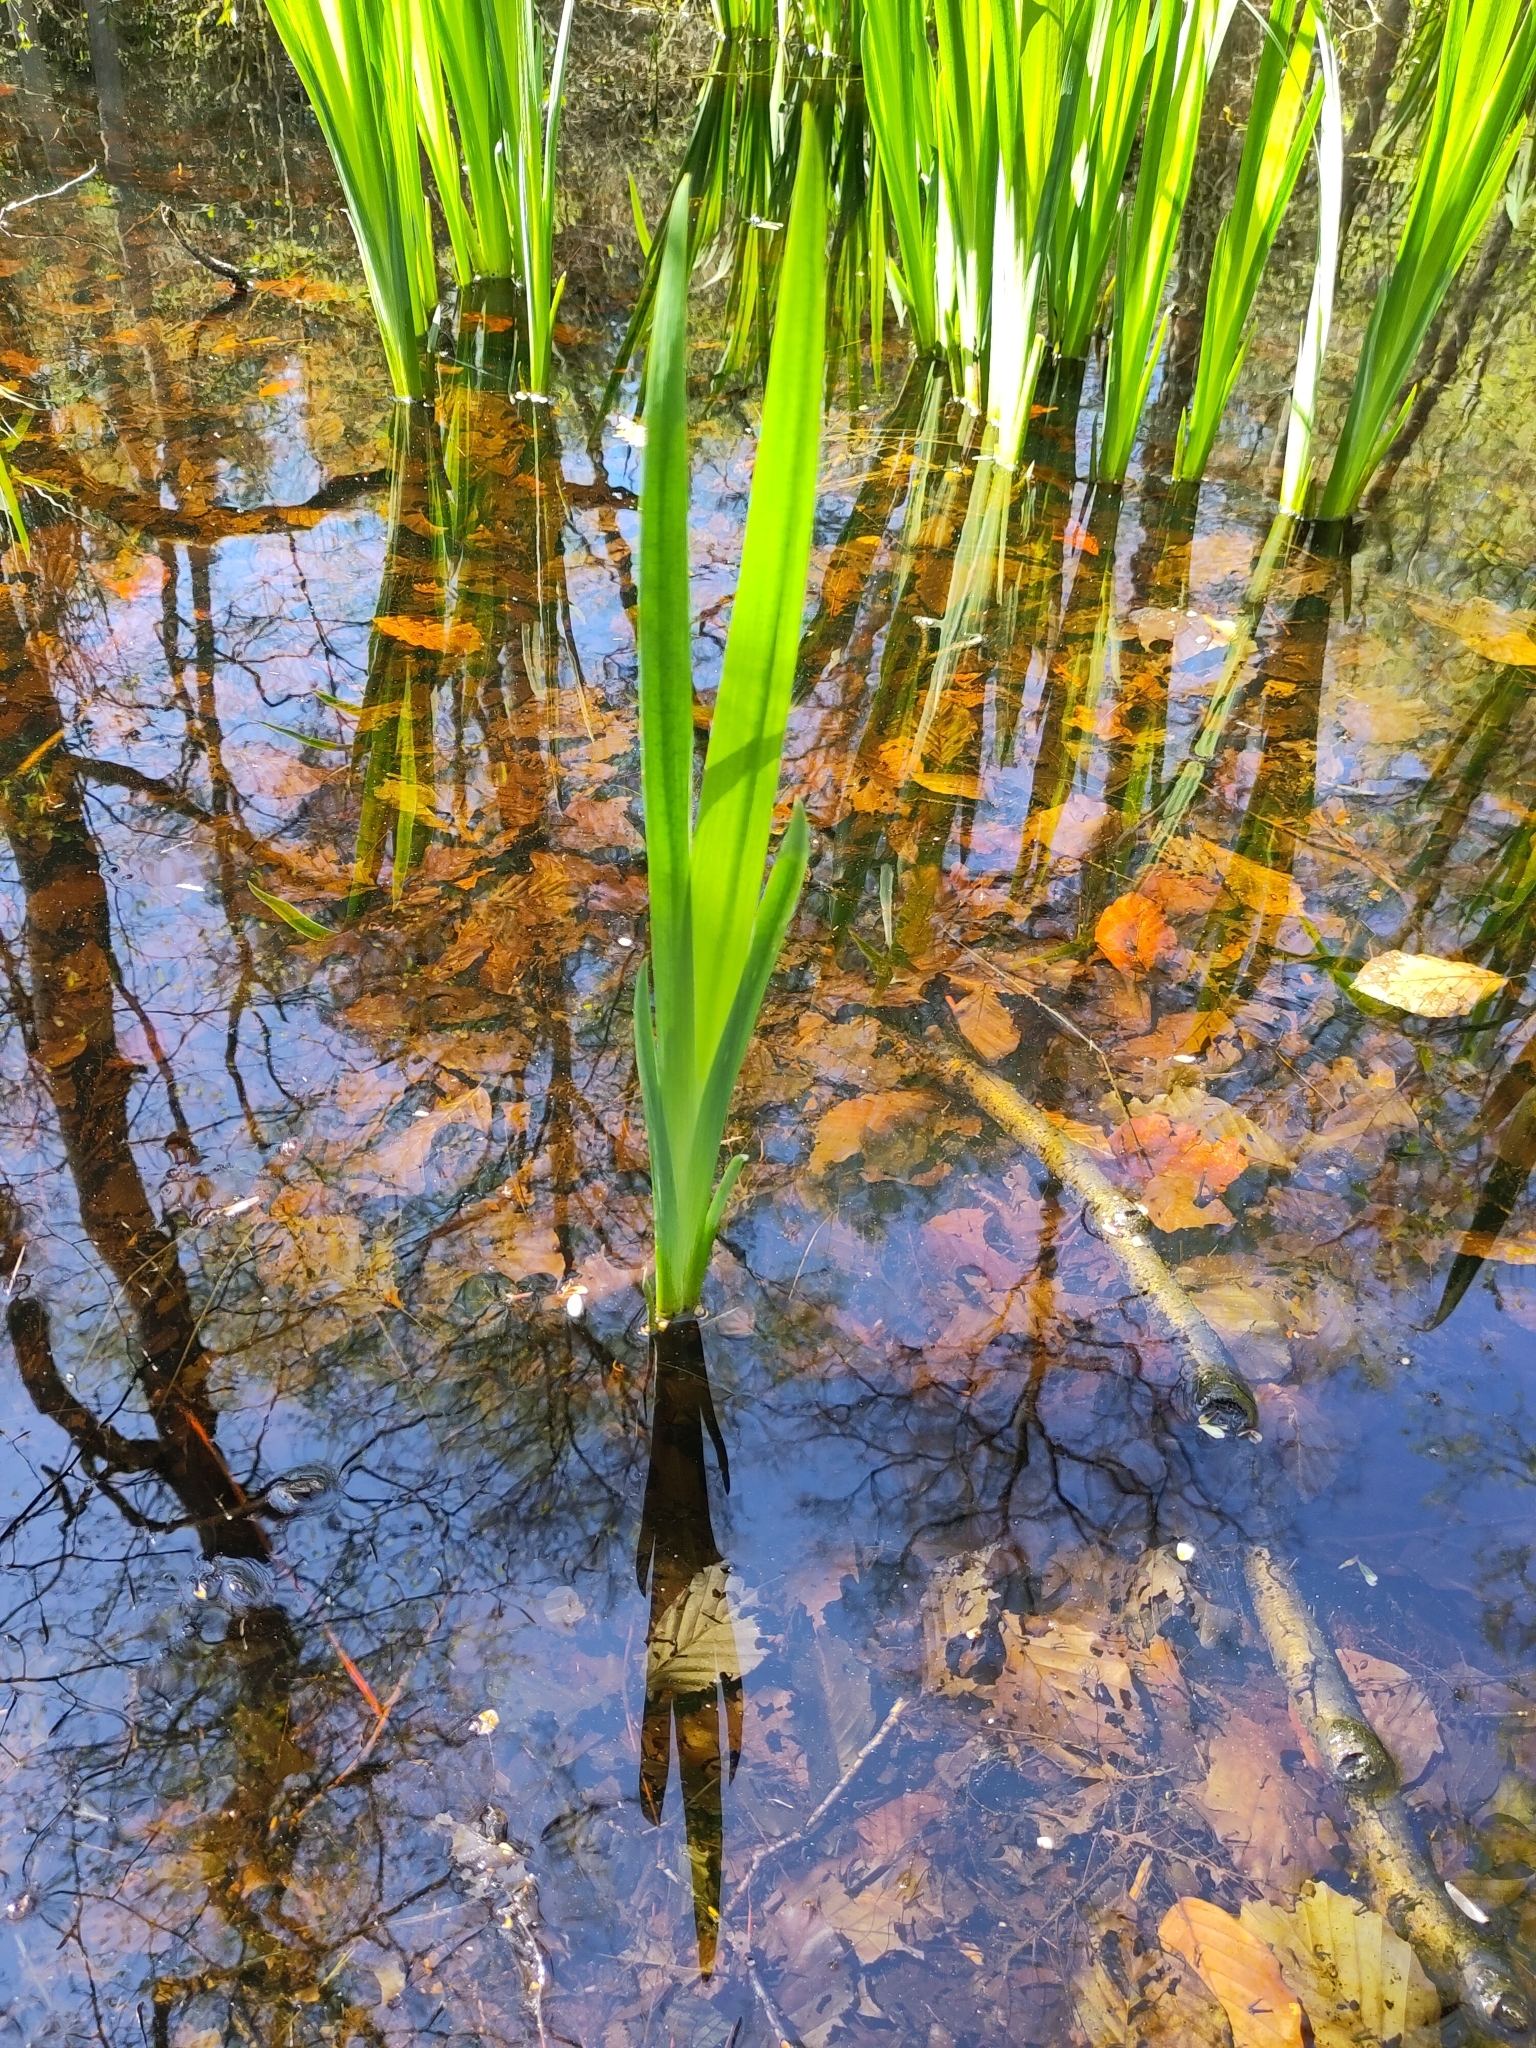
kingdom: Plantae
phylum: Tracheophyta
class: Liliopsida
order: Asparagales
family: Iridaceae
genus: Iris
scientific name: Iris pseudacorus
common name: Yellow flag
